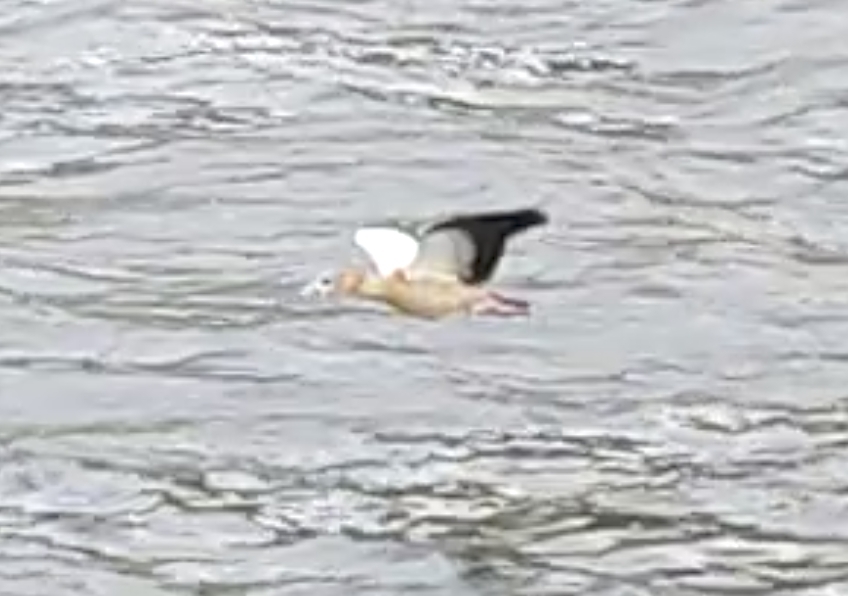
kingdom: Animalia
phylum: Chordata
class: Aves
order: Anseriformes
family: Anatidae
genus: Alopochen
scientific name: Alopochen aegyptiaca
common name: Egyptian goose
